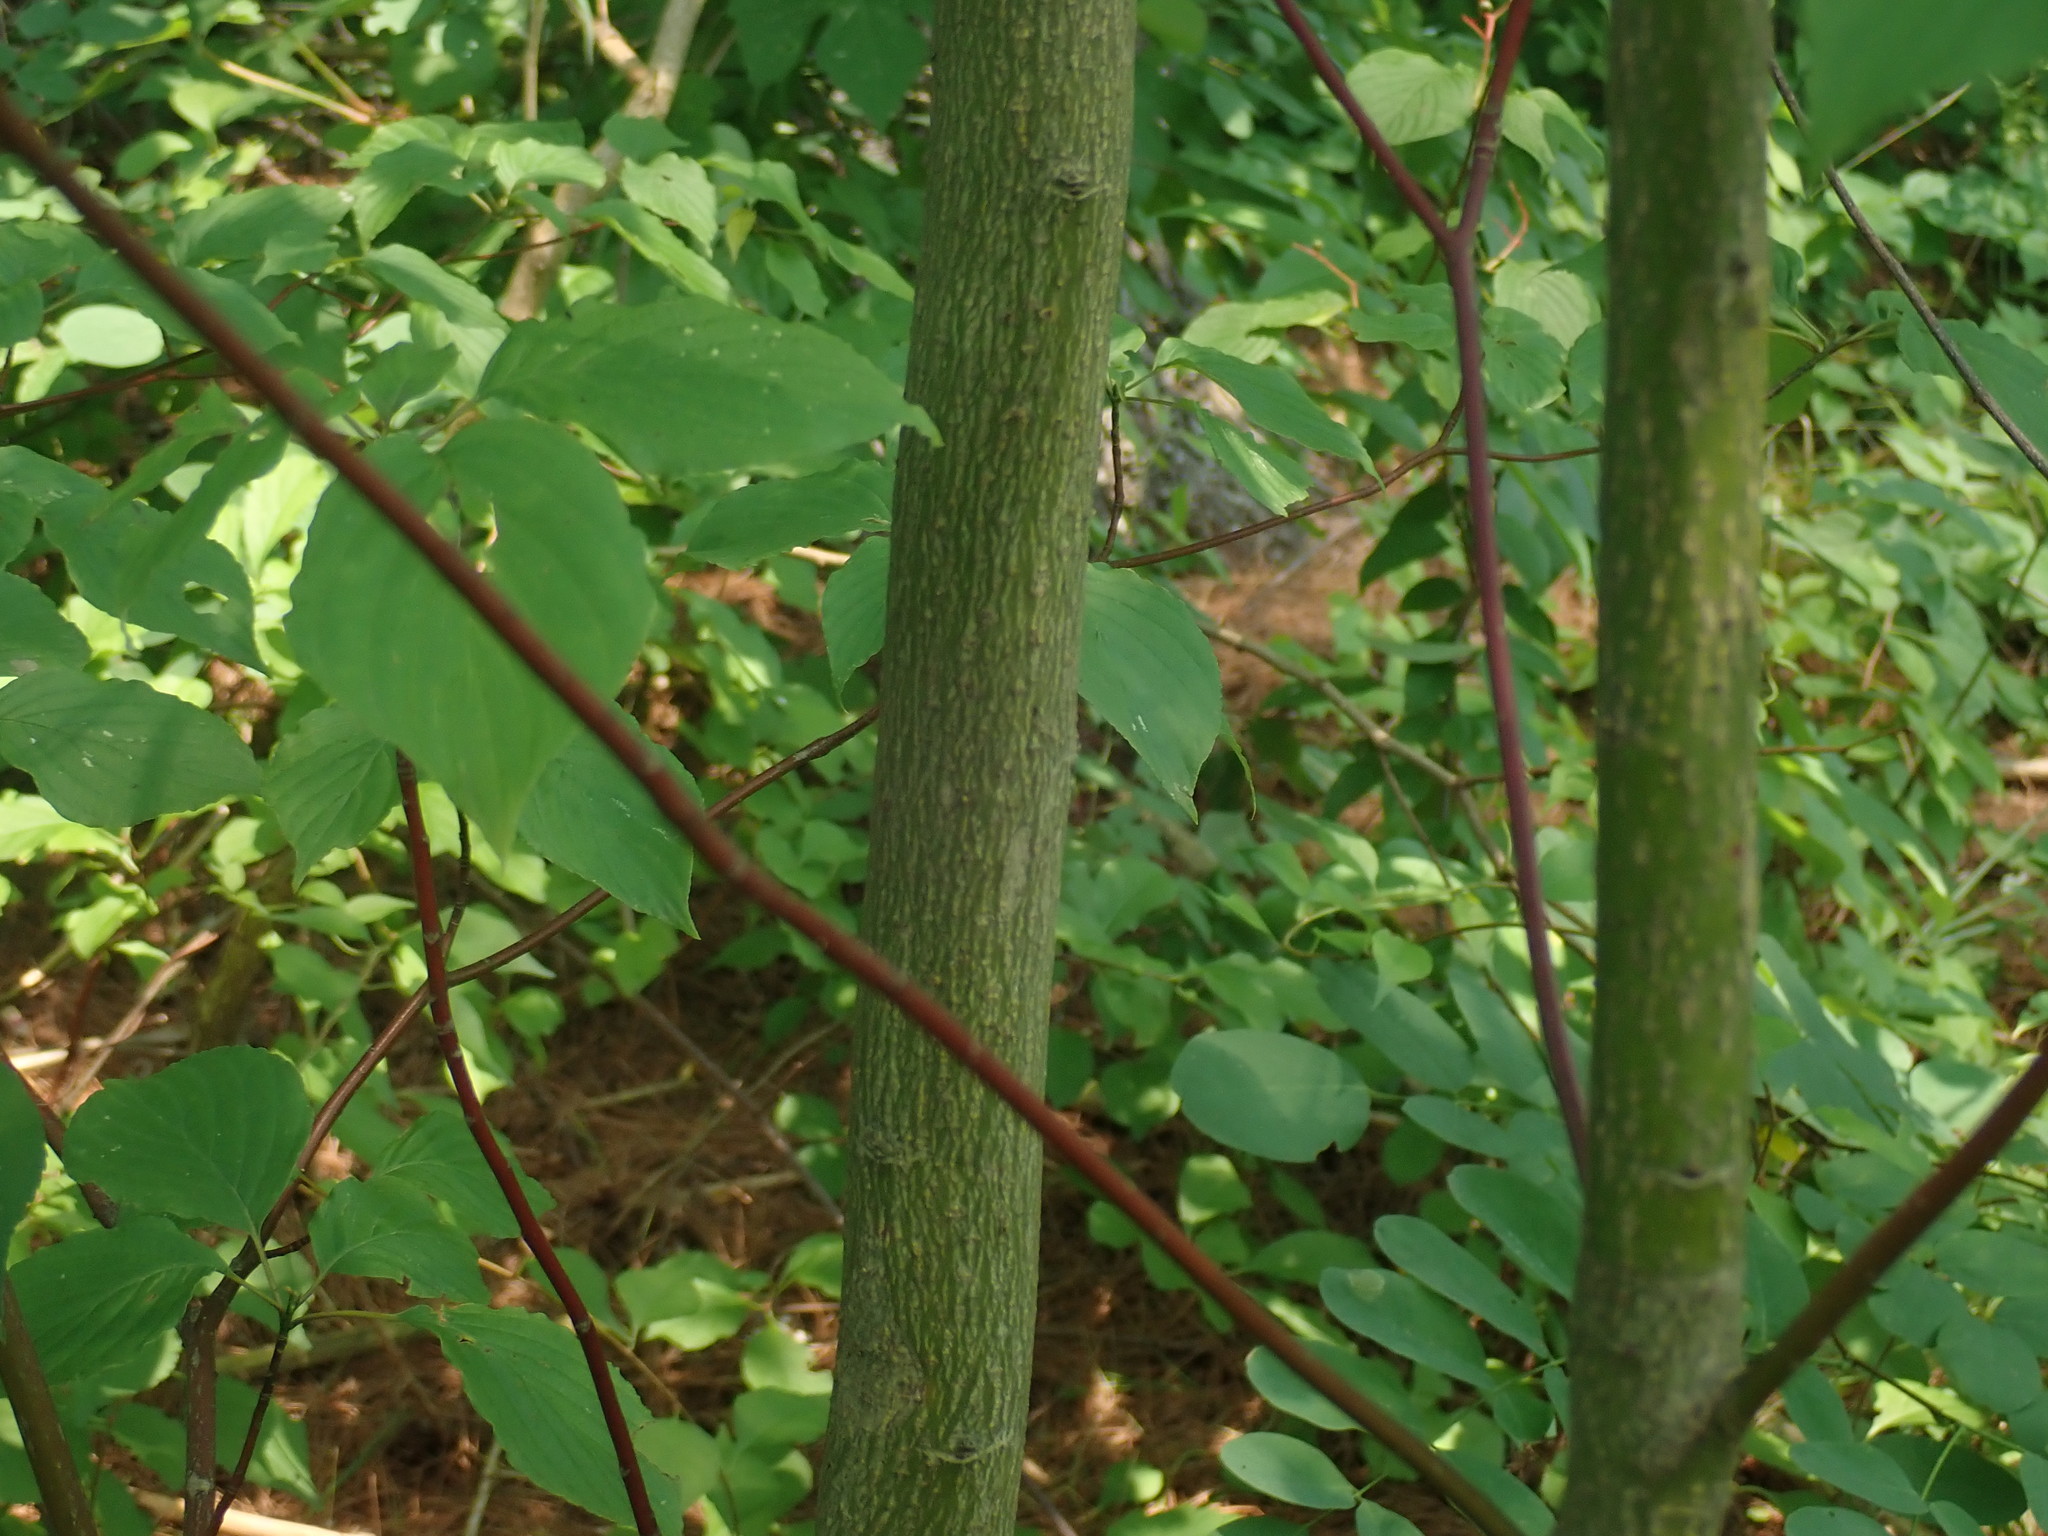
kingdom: Plantae
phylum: Tracheophyta
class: Magnoliopsida
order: Cornales
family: Cornaceae
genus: Cornus
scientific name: Cornus alternifolia
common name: Pagoda dogwood
